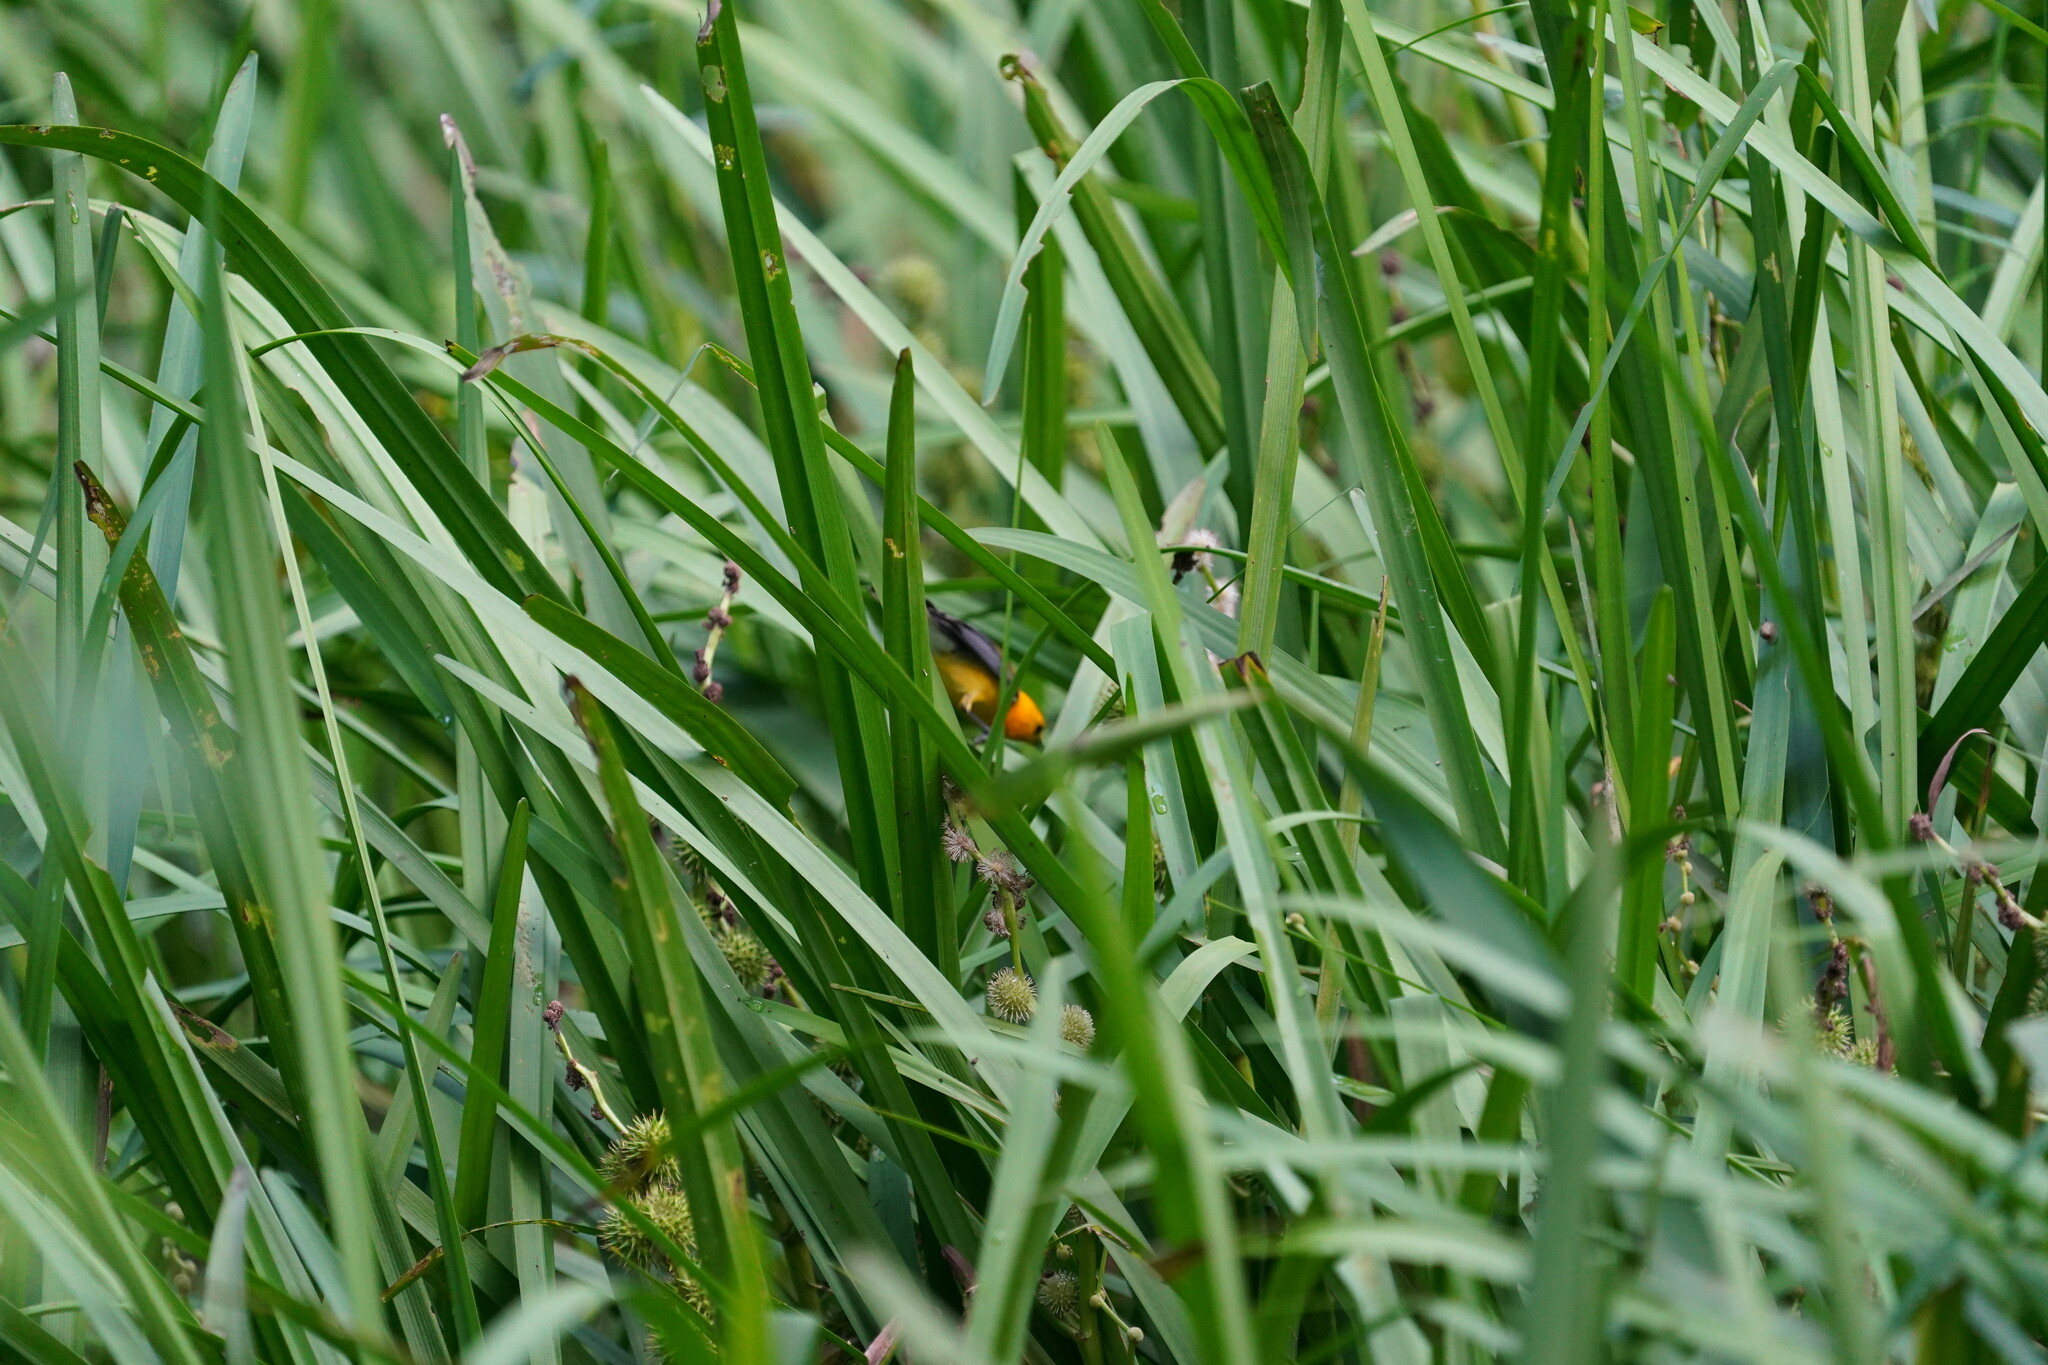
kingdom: Animalia
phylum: Chordata
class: Aves
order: Passeriformes
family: Parulidae
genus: Protonotaria
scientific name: Protonotaria citrea
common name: Prothonotary warbler
